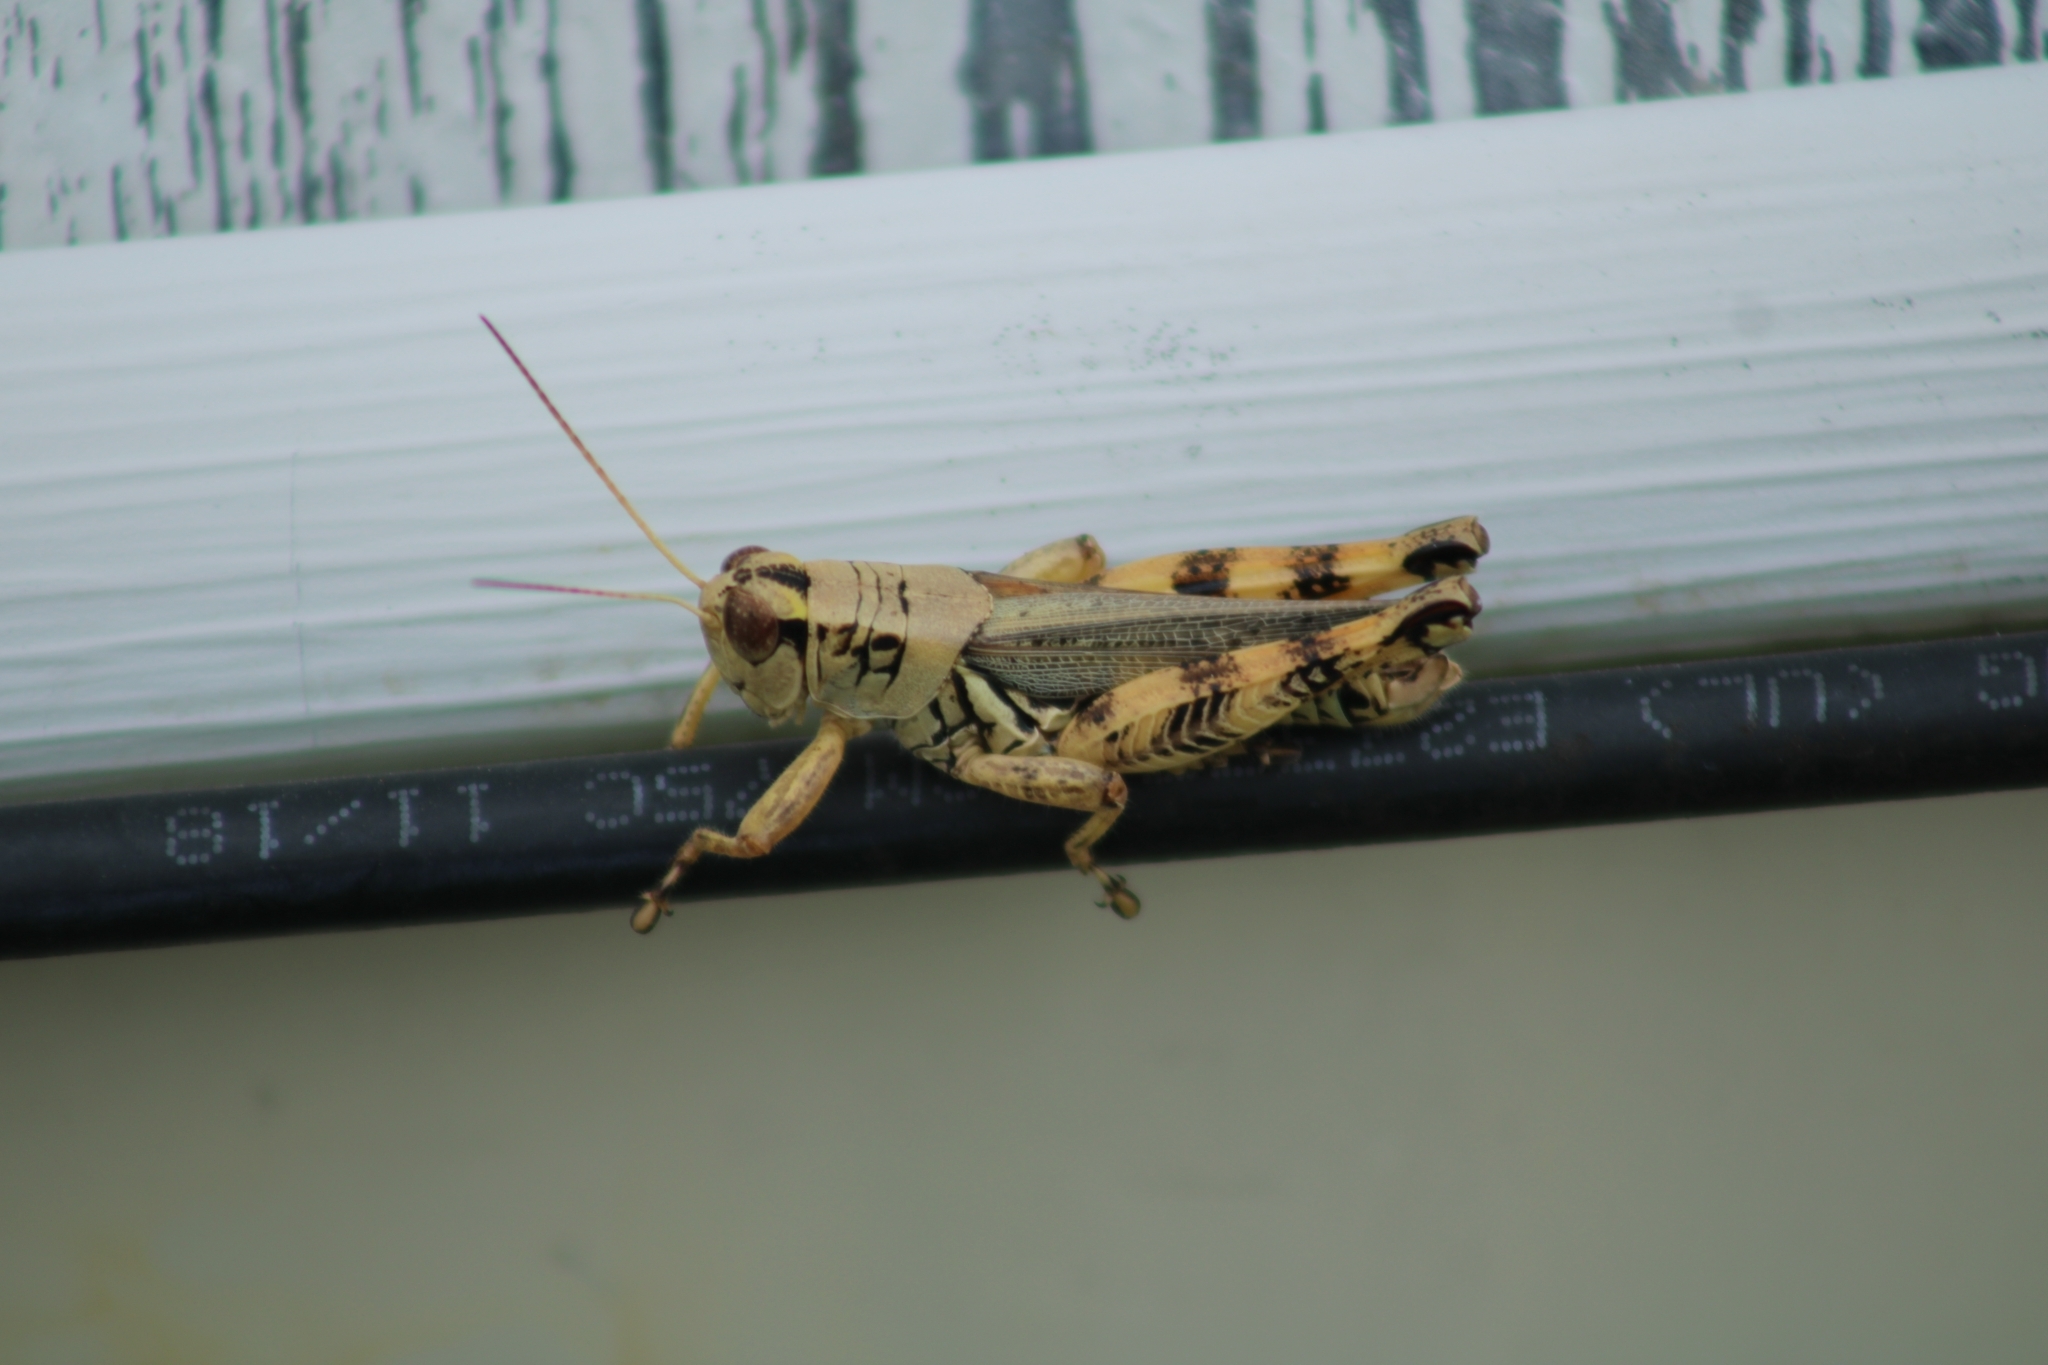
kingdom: Animalia
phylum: Arthropoda
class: Insecta
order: Orthoptera
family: Acrididae
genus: Melanoplus
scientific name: Melanoplus ponderosus
